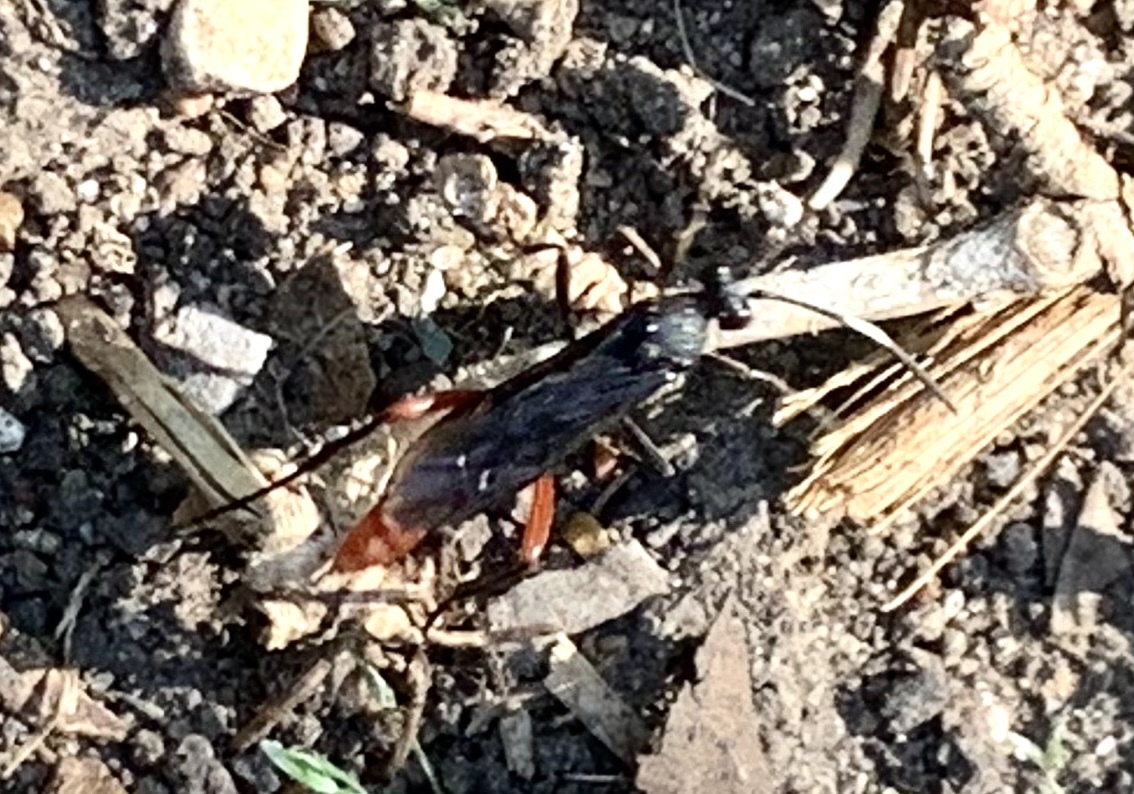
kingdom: Animalia
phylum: Arthropoda
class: Insecta
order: Hymenoptera
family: Ichneumonidae
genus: Limonethe
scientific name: Limonethe maurator
